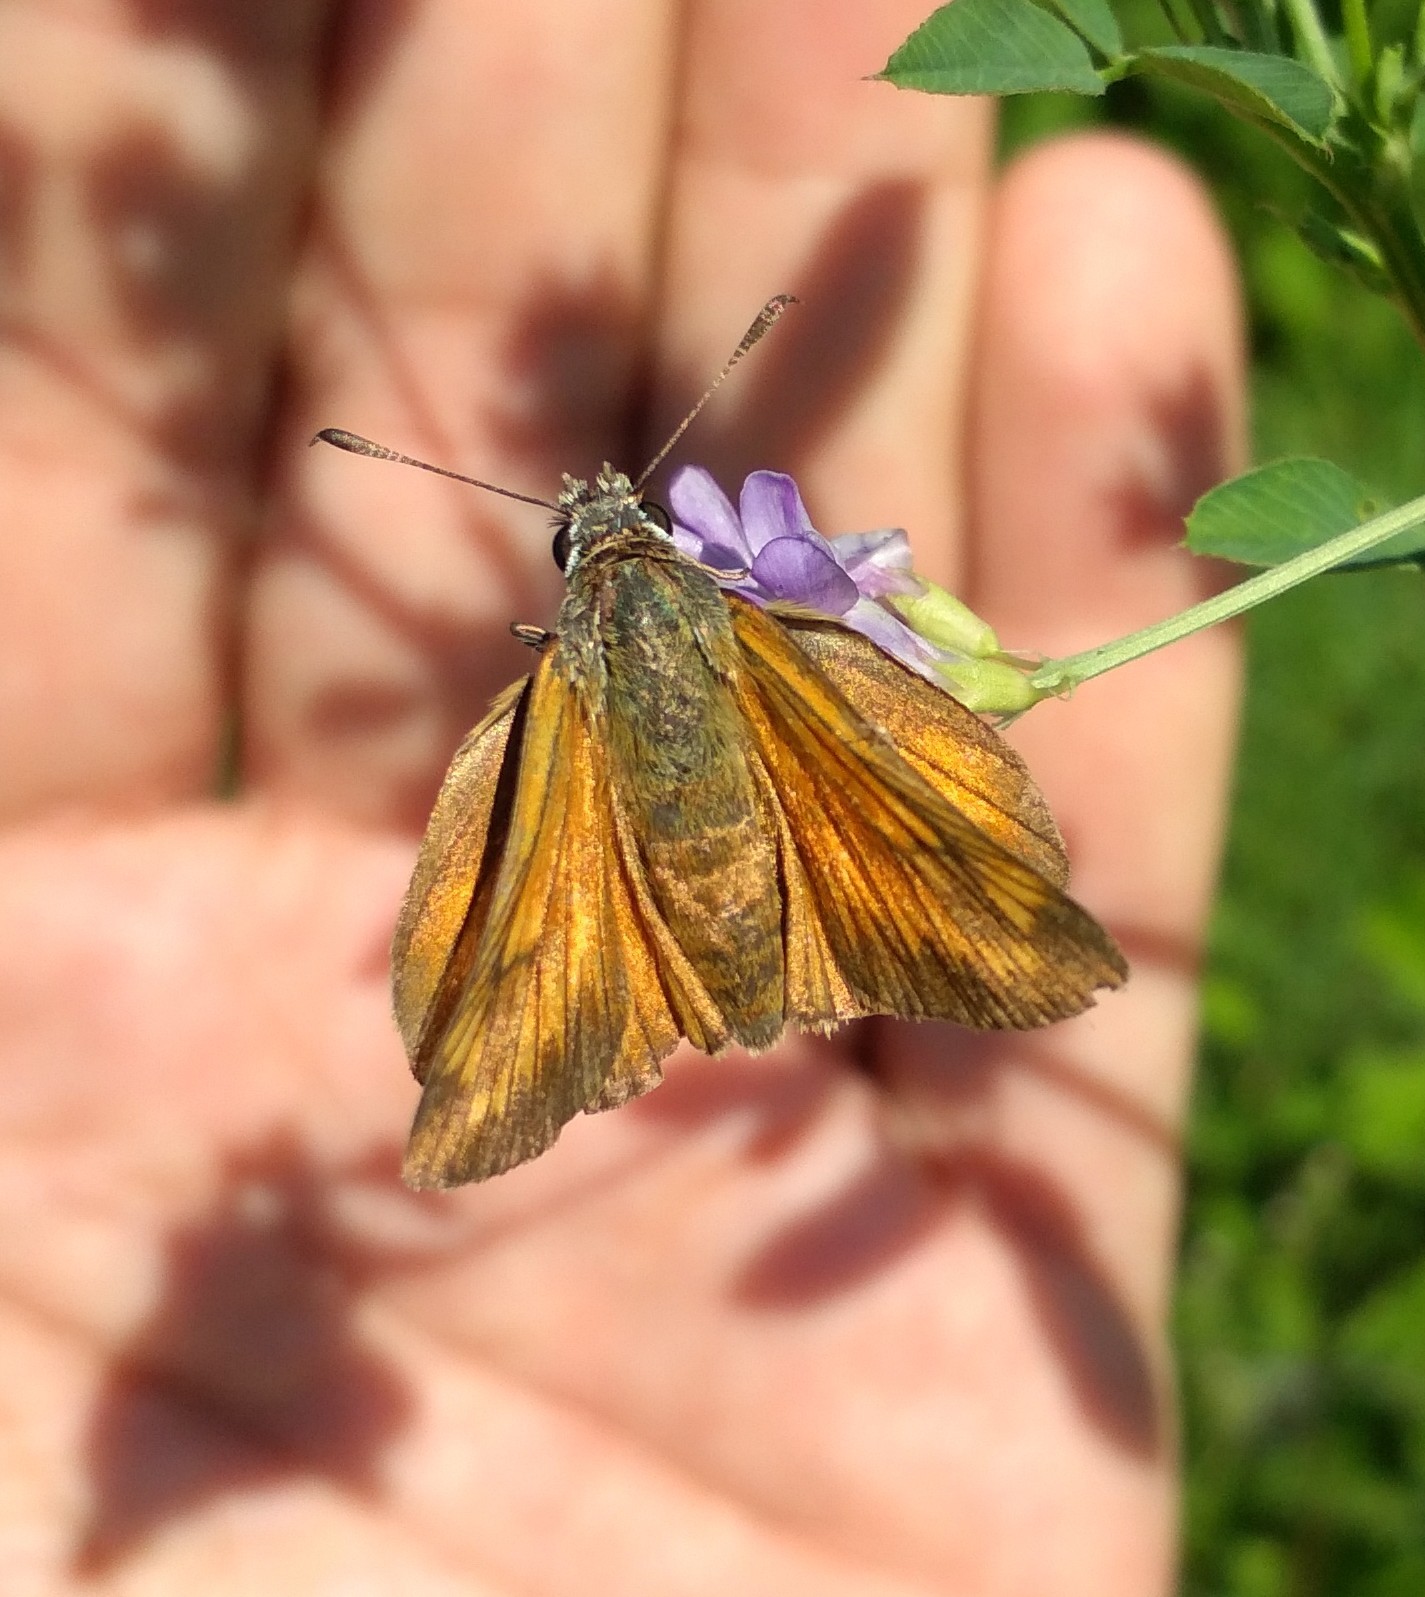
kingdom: Animalia
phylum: Arthropoda
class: Insecta
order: Lepidoptera
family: Hesperiidae
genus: Ochlodes
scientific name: Ochlodes venata
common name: Large skipper
